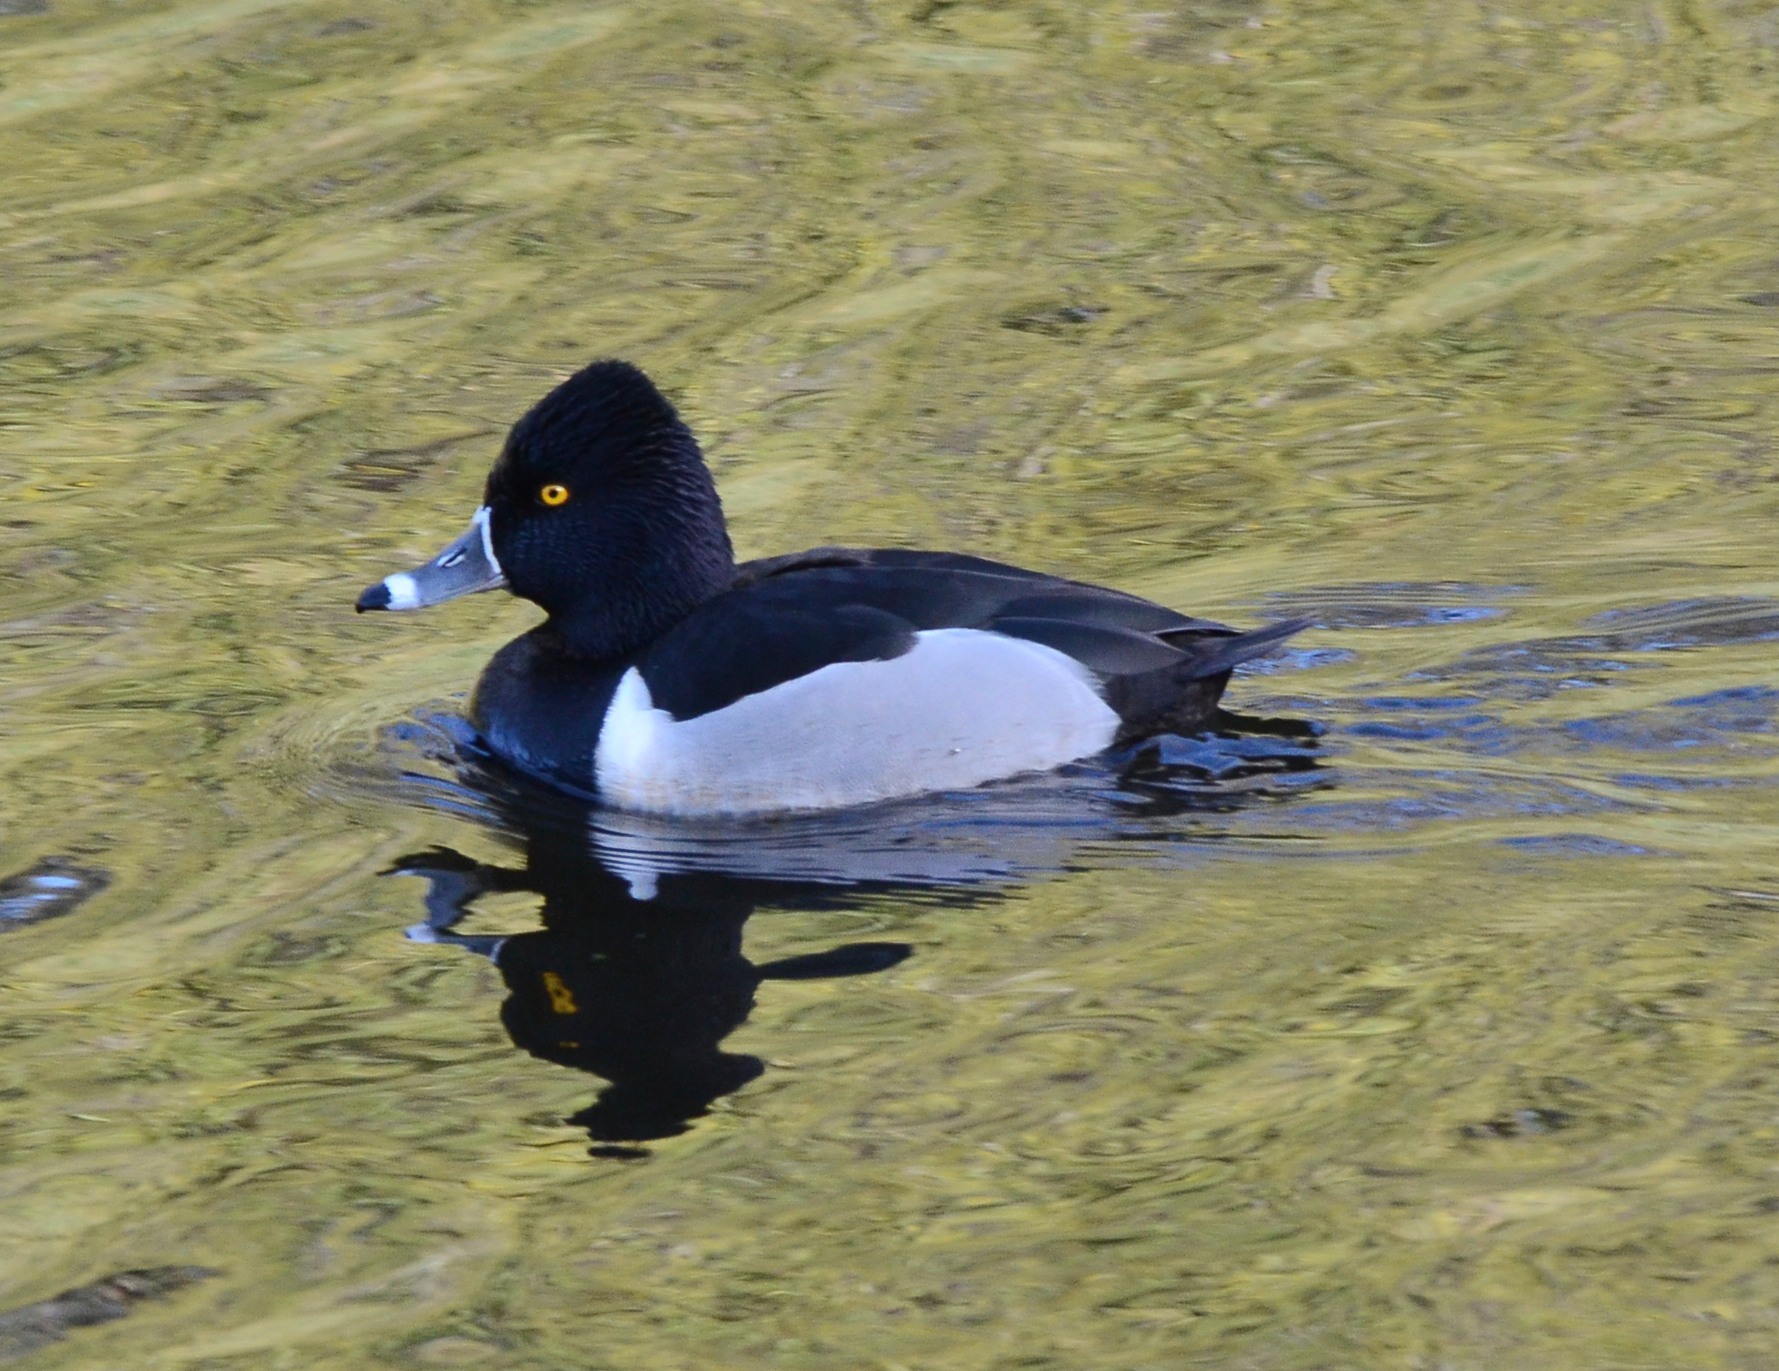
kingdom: Animalia
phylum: Chordata
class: Aves
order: Anseriformes
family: Anatidae
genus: Aythya
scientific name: Aythya collaris
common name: Ring-necked duck
